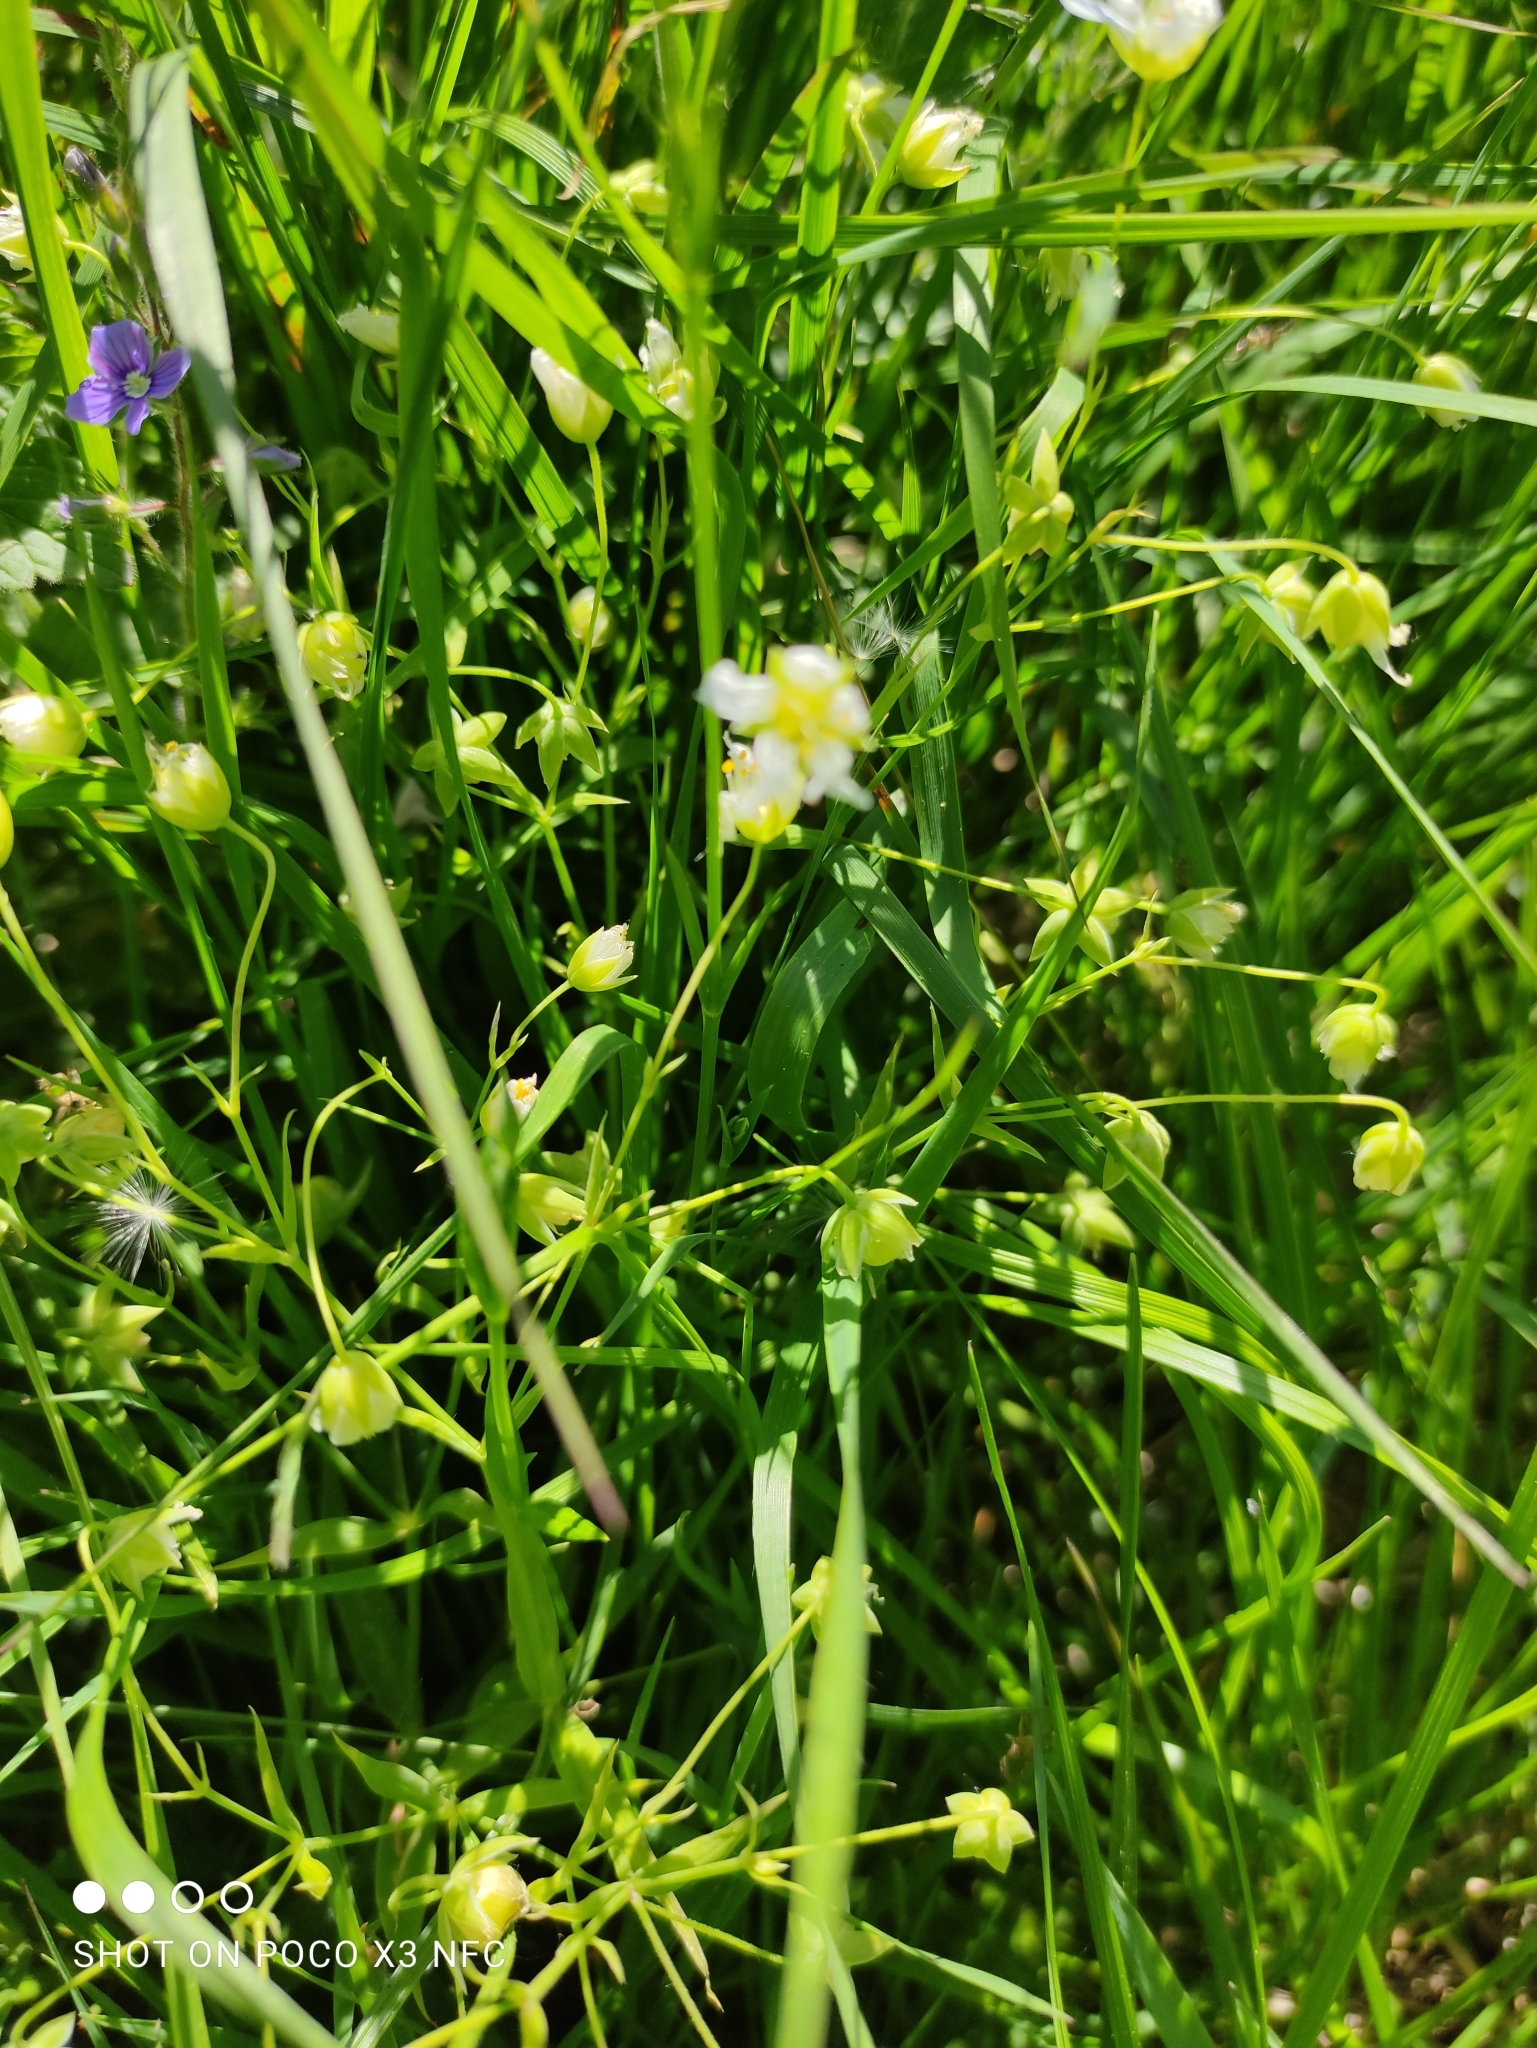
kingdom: Plantae
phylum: Tracheophyta
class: Magnoliopsida
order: Caryophyllales
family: Caryophyllaceae
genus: Rabelera
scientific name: Rabelera holostea
